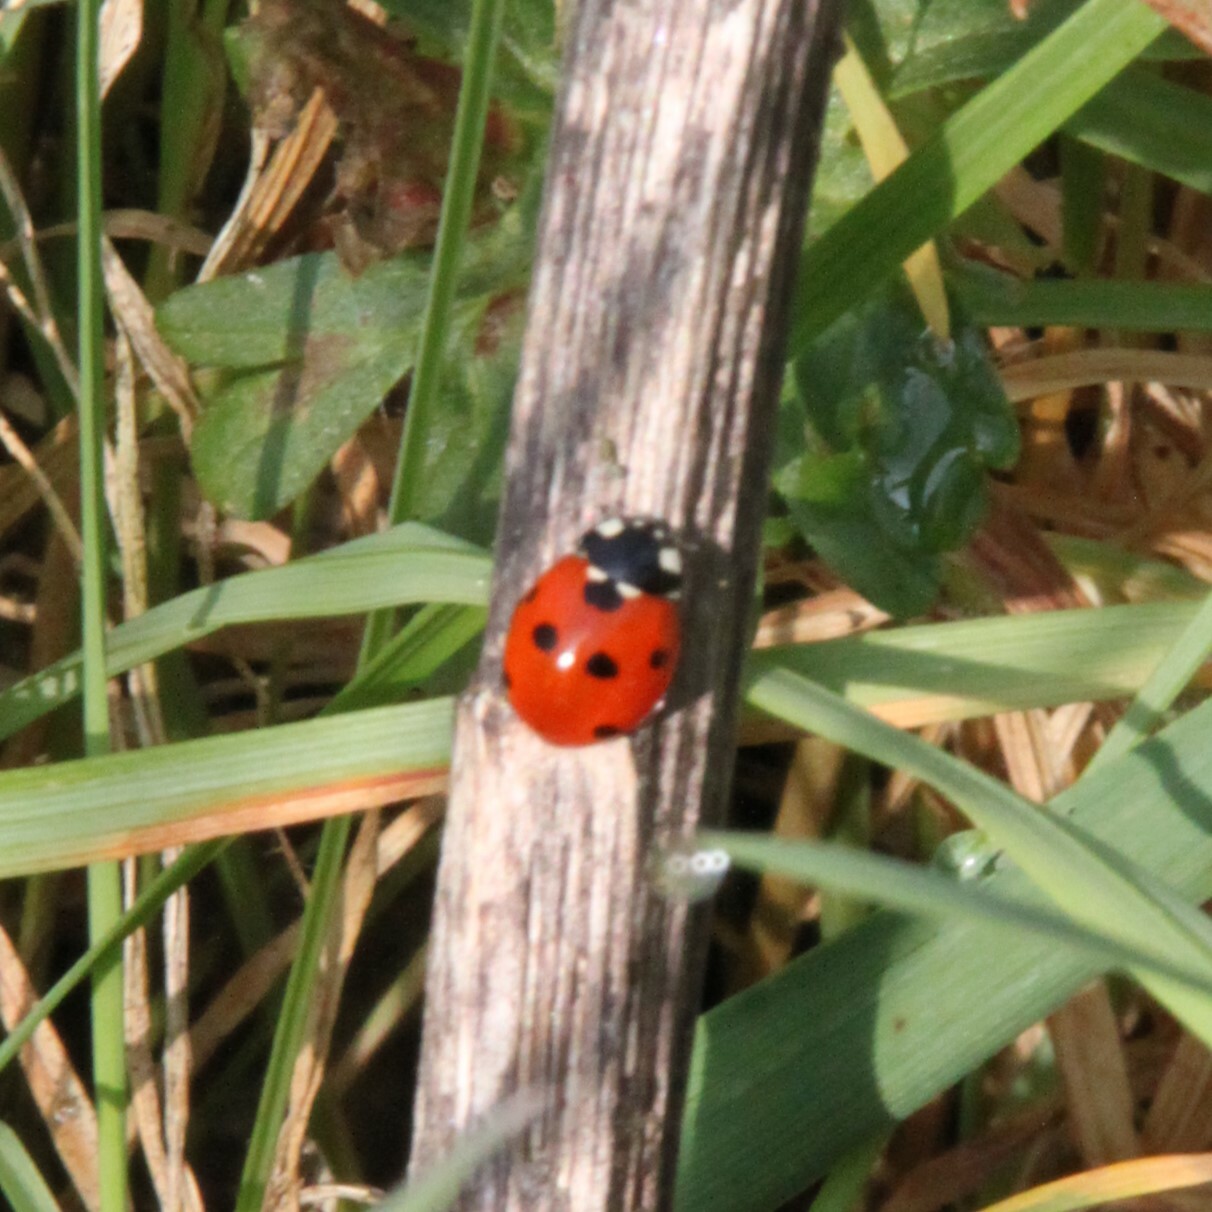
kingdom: Animalia
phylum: Arthropoda
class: Insecta
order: Coleoptera
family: Coccinellidae
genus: Coccinella
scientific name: Coccinella septempunctata
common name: Sevenspotted lady beetle
